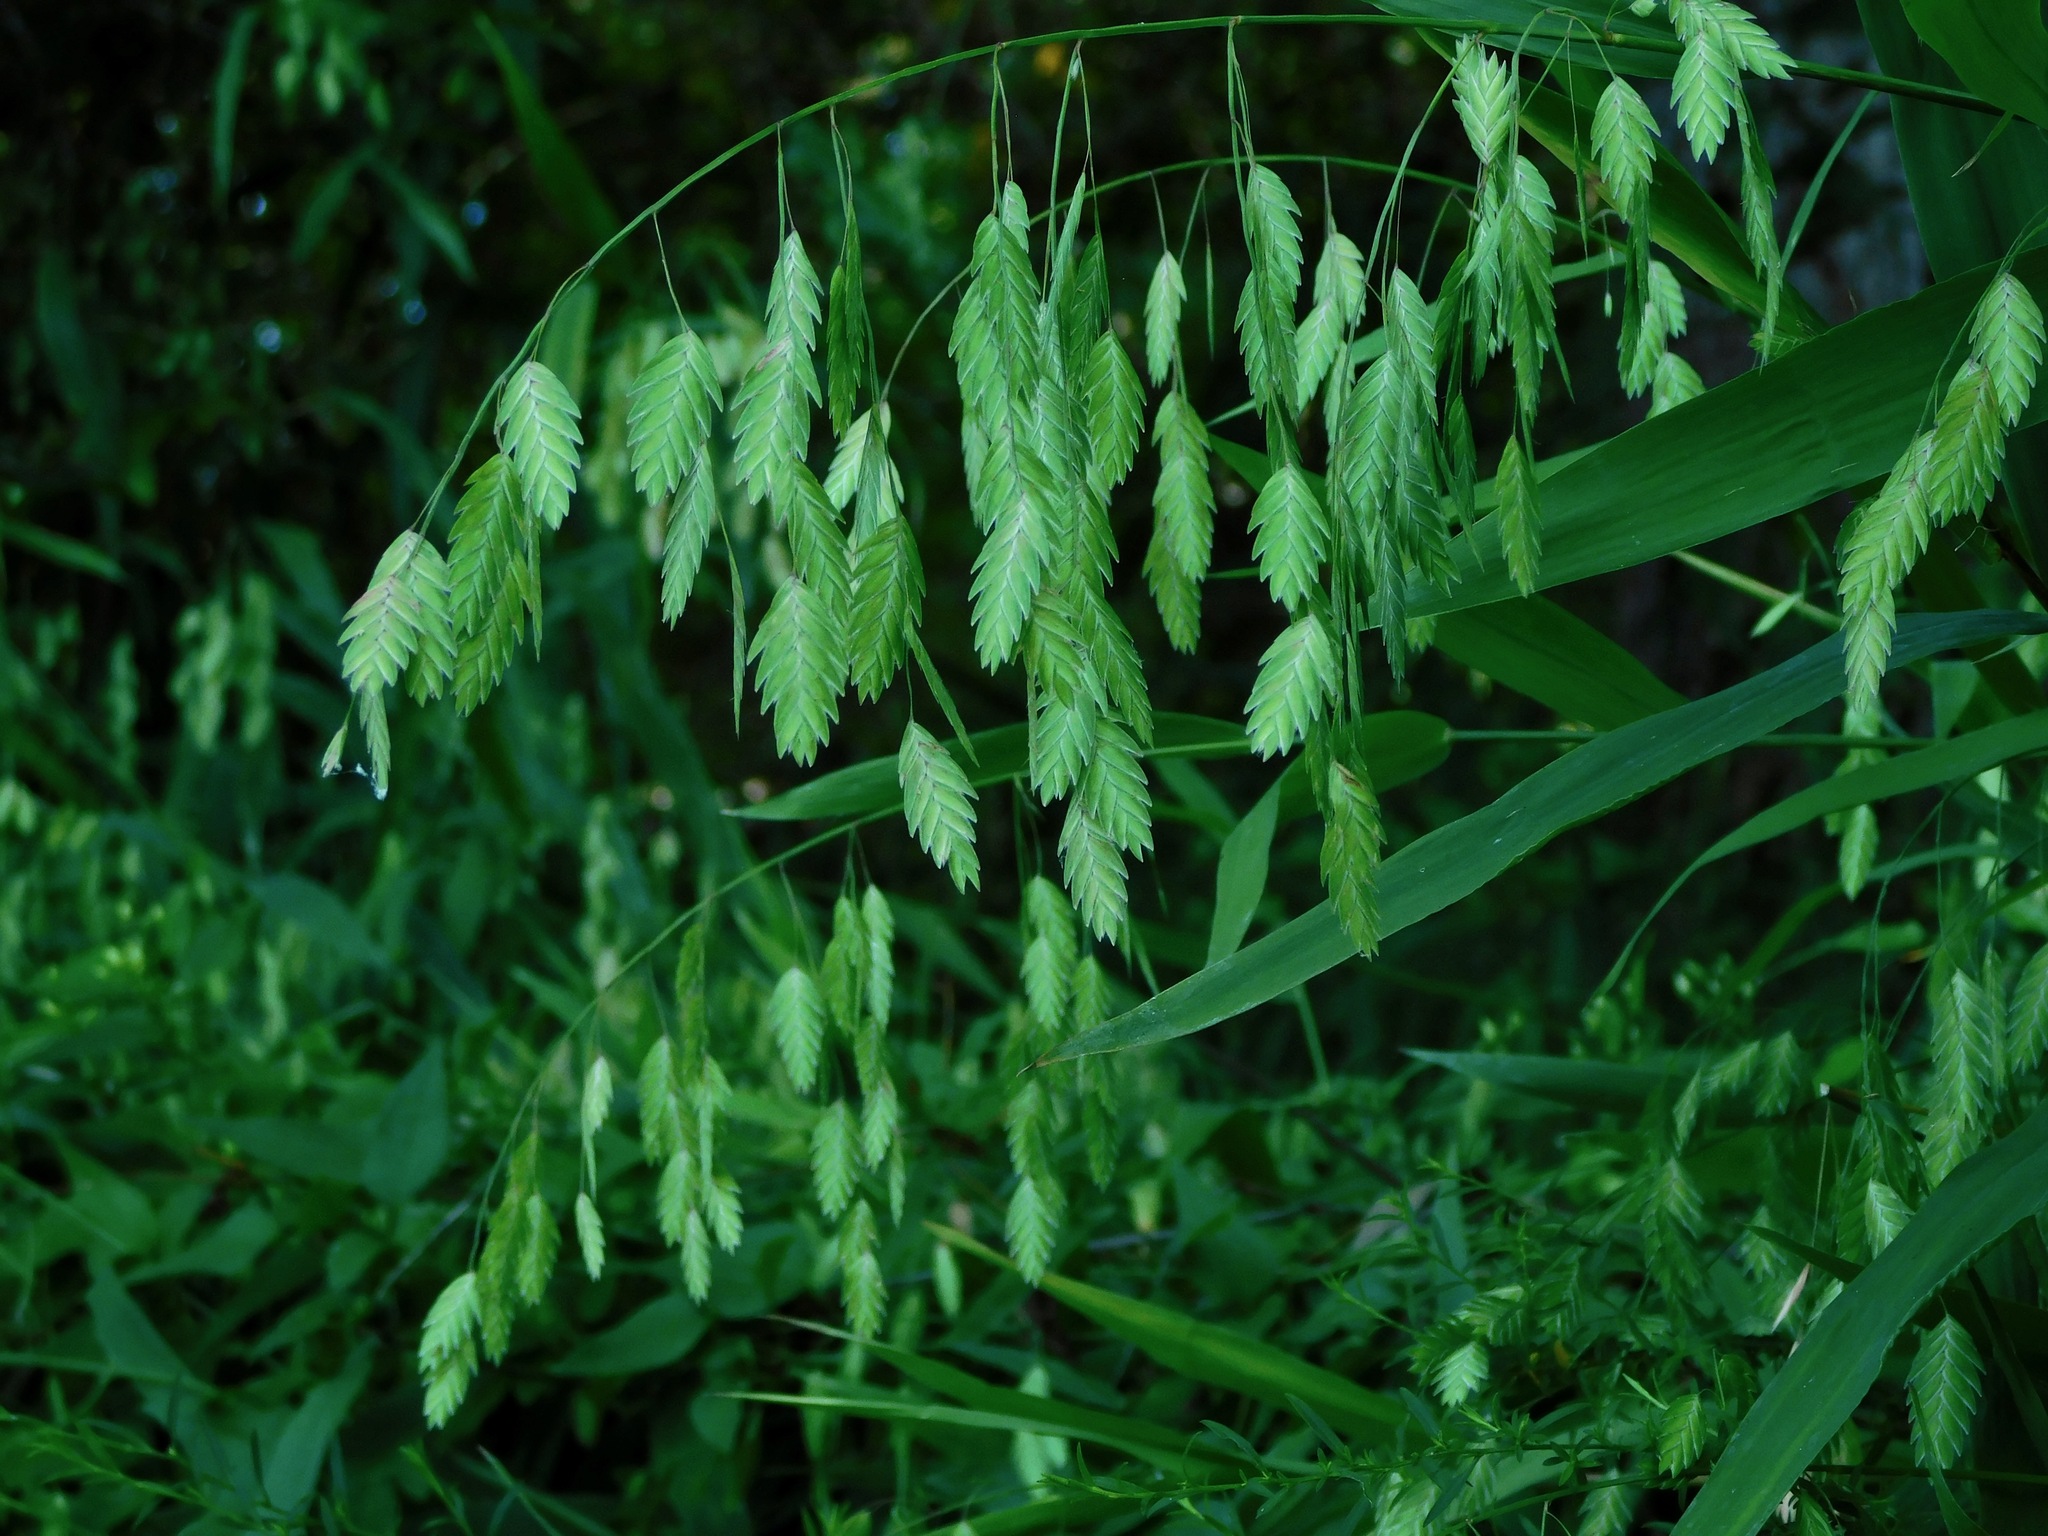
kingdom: Plantae
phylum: Tracheophyta
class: Liliopsida
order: Poales
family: Poaceae
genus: Chasmanthium
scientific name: Chasmanthium latifolium
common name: Broad-leaved chasmanthium
